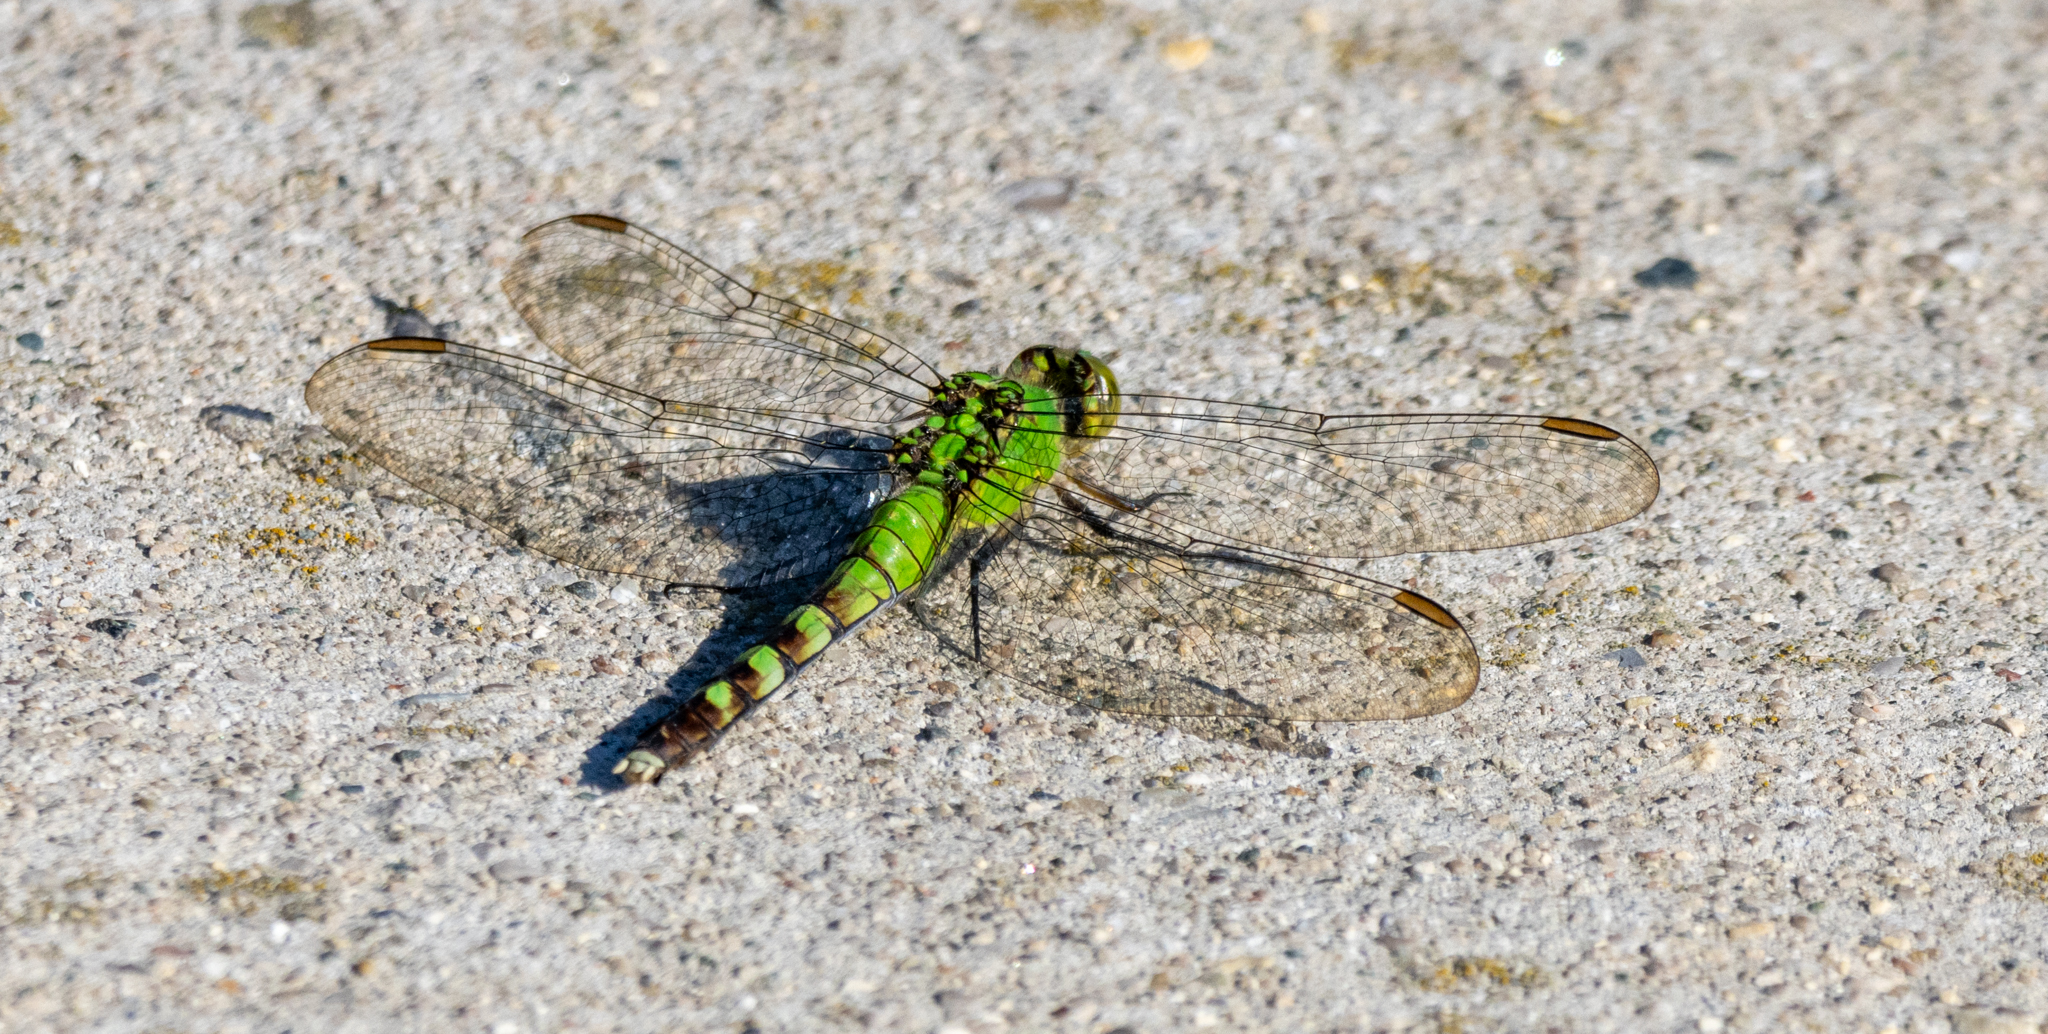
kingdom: Animalia
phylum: Arthropoda
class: Insecta
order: Odonata
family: Libellulidae
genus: Erythemis
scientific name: Erythemis simplicicollis
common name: Eastern pondhawk
